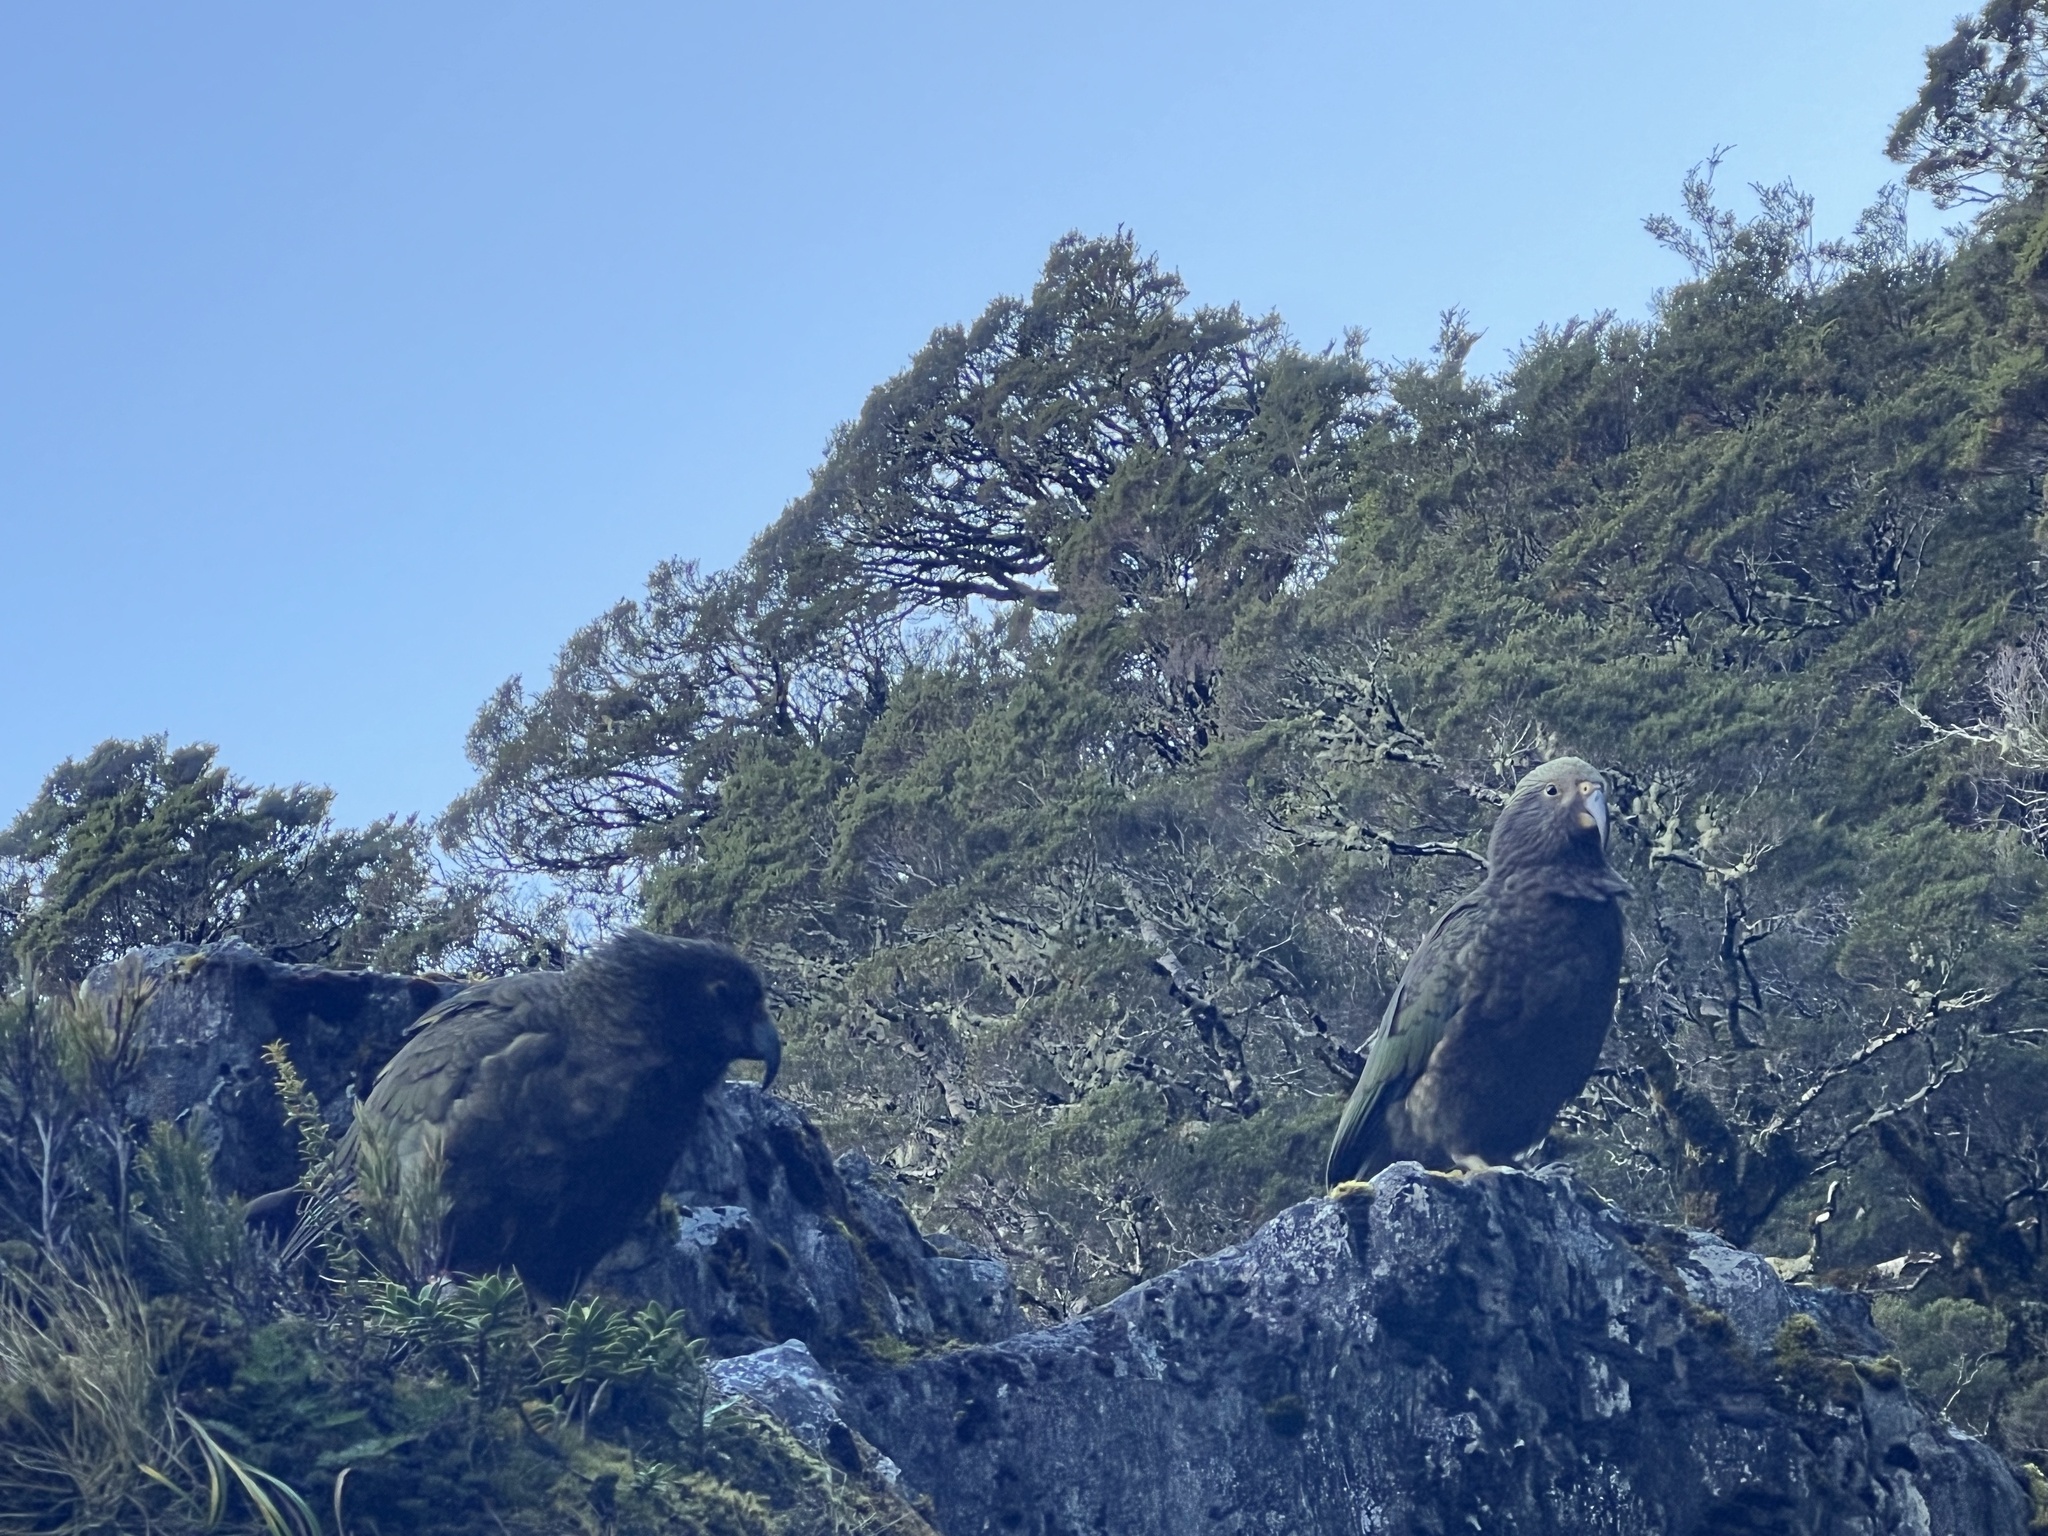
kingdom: Animalia
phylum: Chordata
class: Aves
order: Psittaciformes
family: Psittacidae
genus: Nestor
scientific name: Nestor notabilis
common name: Kea
